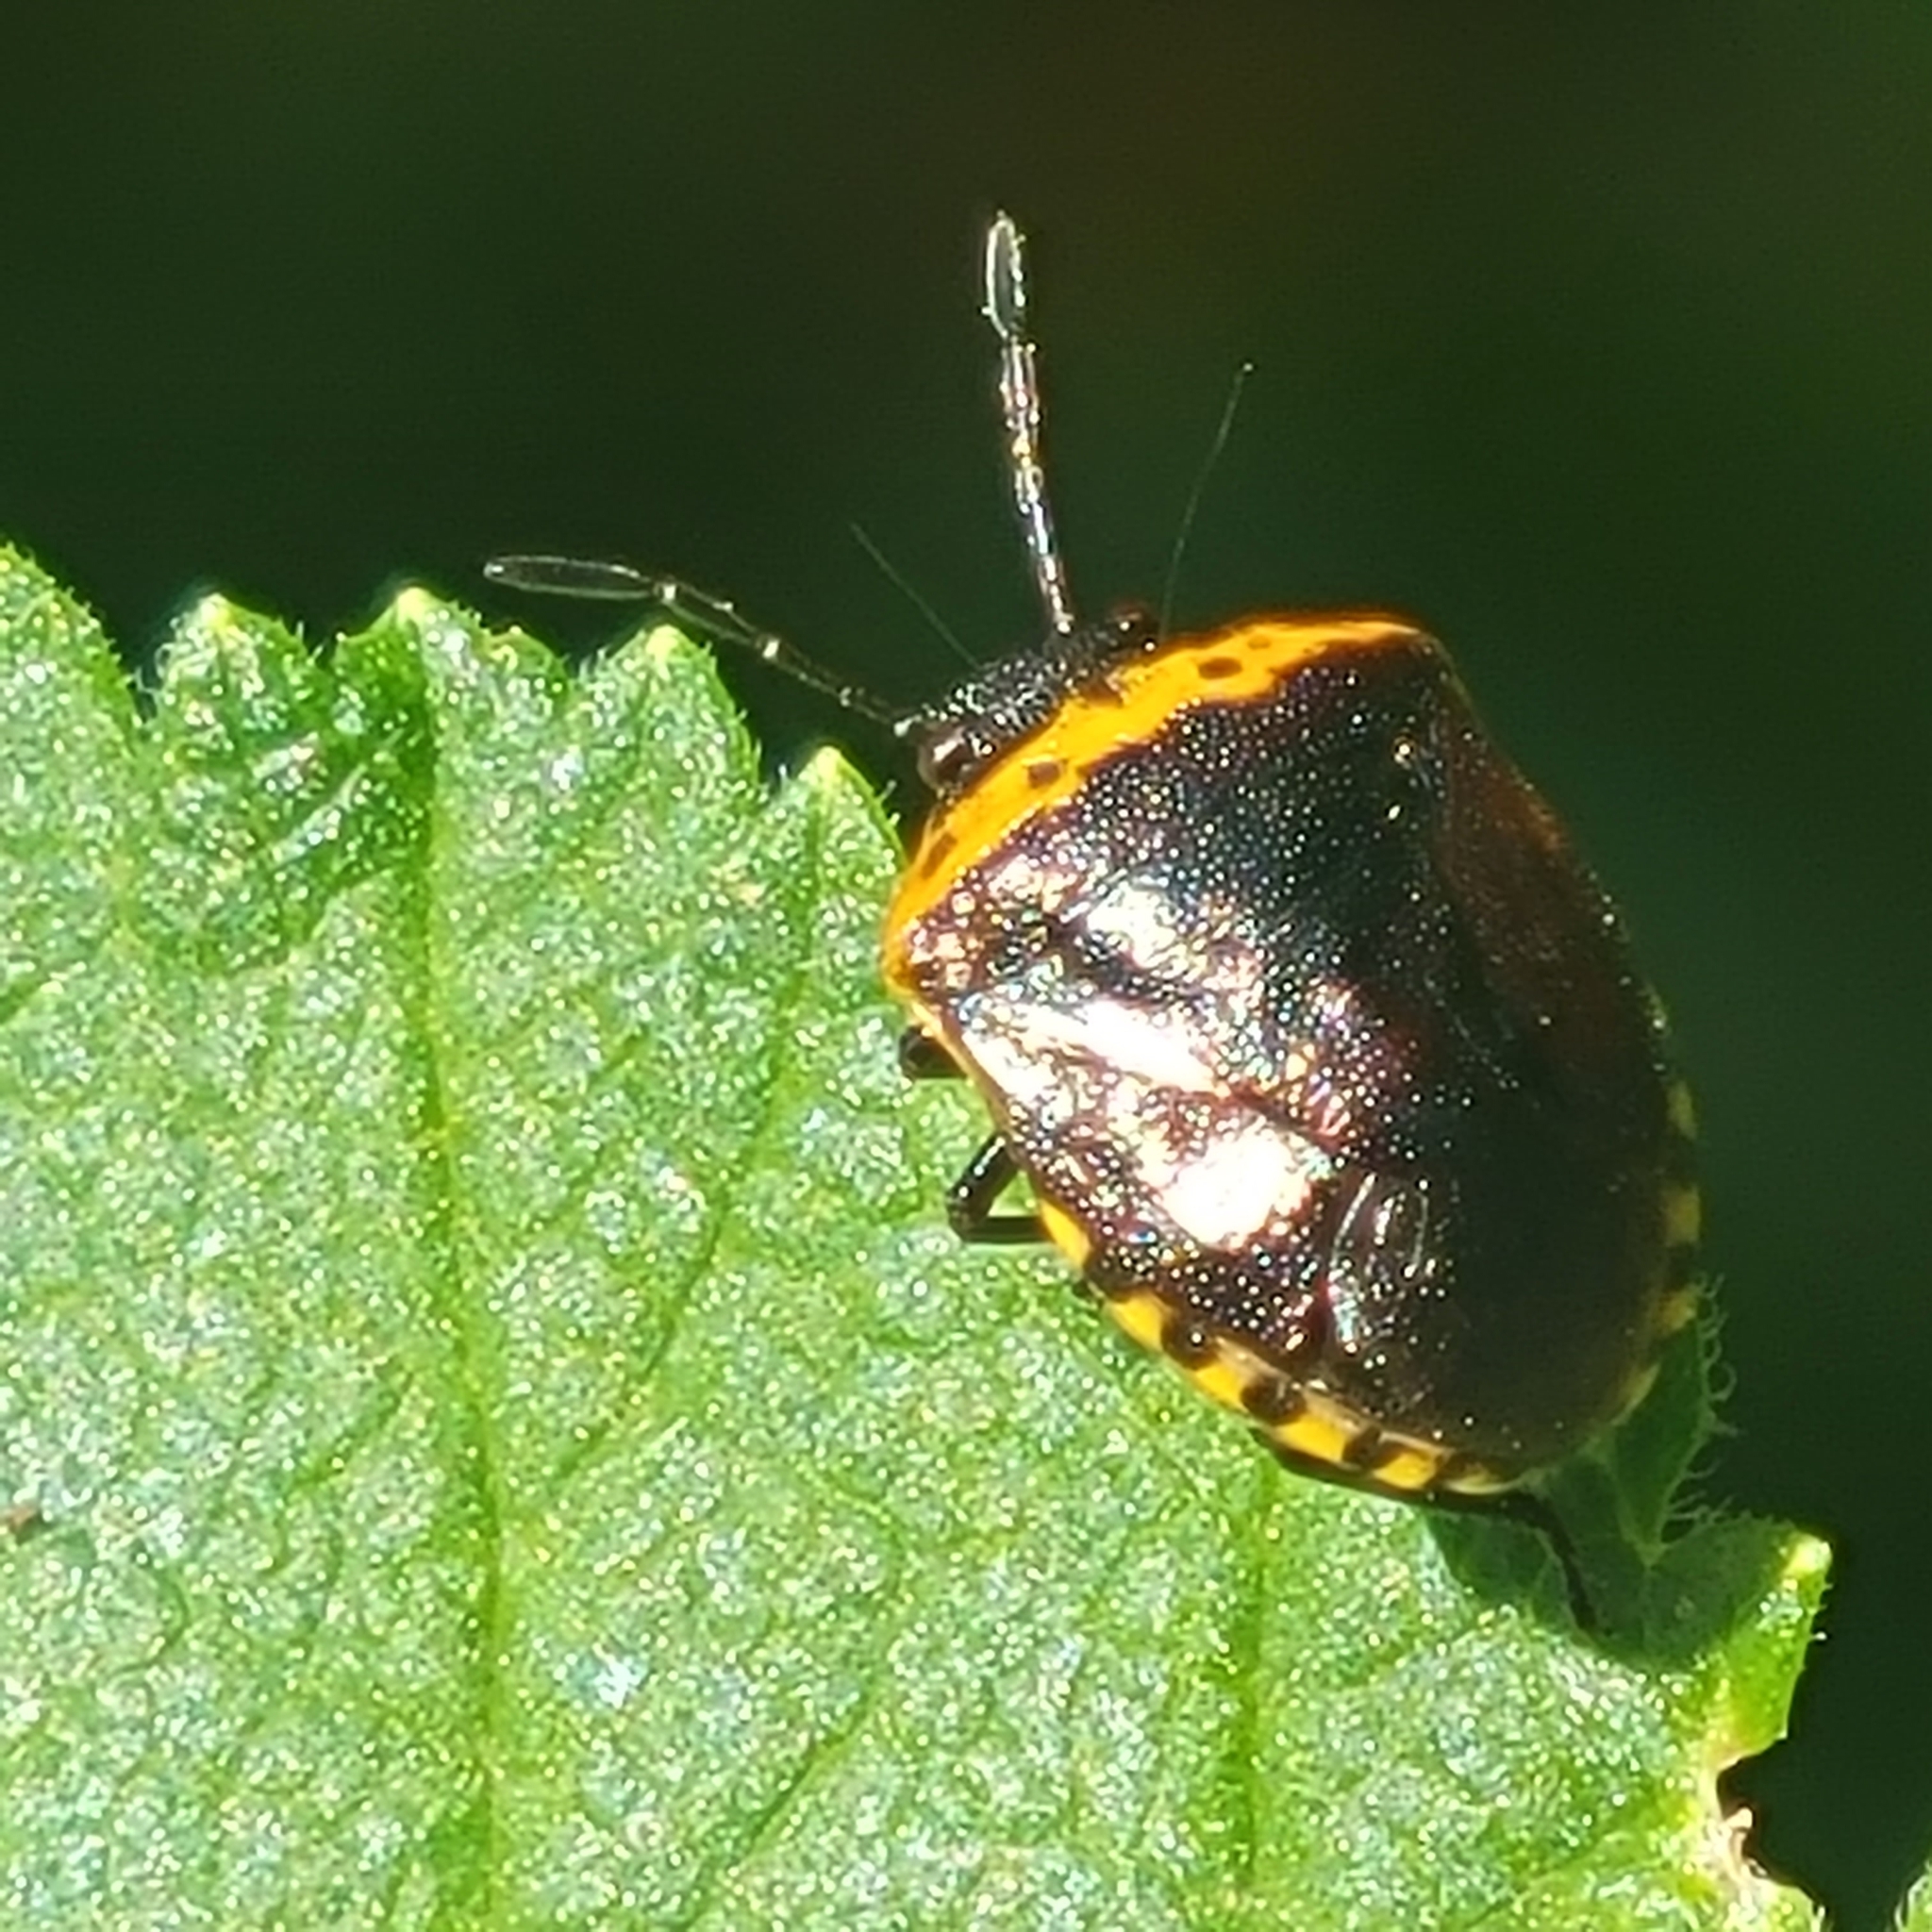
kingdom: Animalia
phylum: Arthropoda
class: Insecta
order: Hemiptera
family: Pentatomidae
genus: Cosmopepla
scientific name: Cosmopepla uhleri
